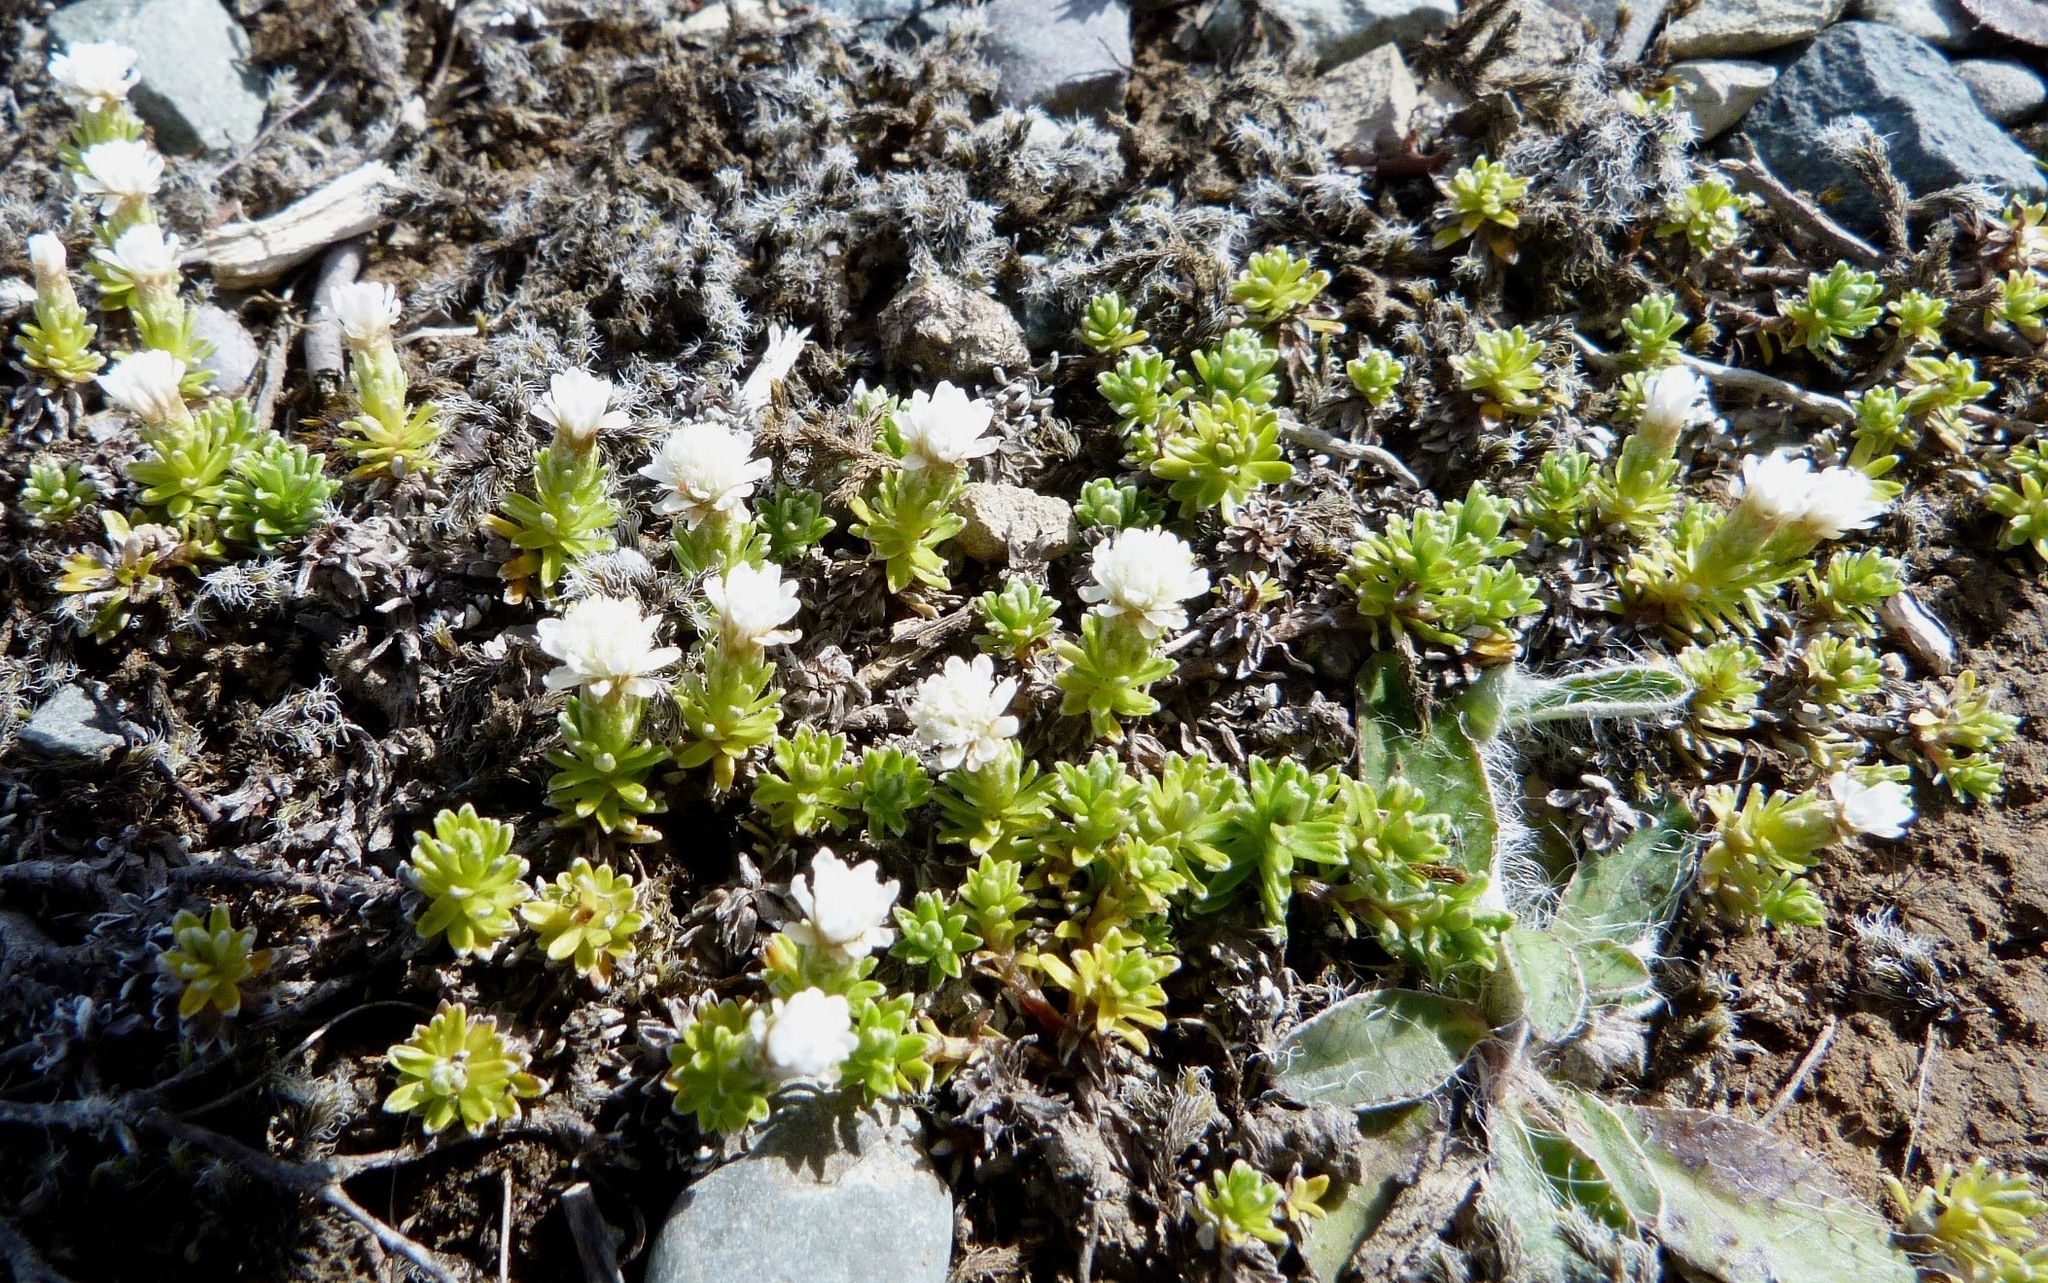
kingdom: Plantae
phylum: Tracheophyta
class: Magnoliopsida
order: Asterales
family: Asteraceae
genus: Raoulia
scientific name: Raoulia subsericea
